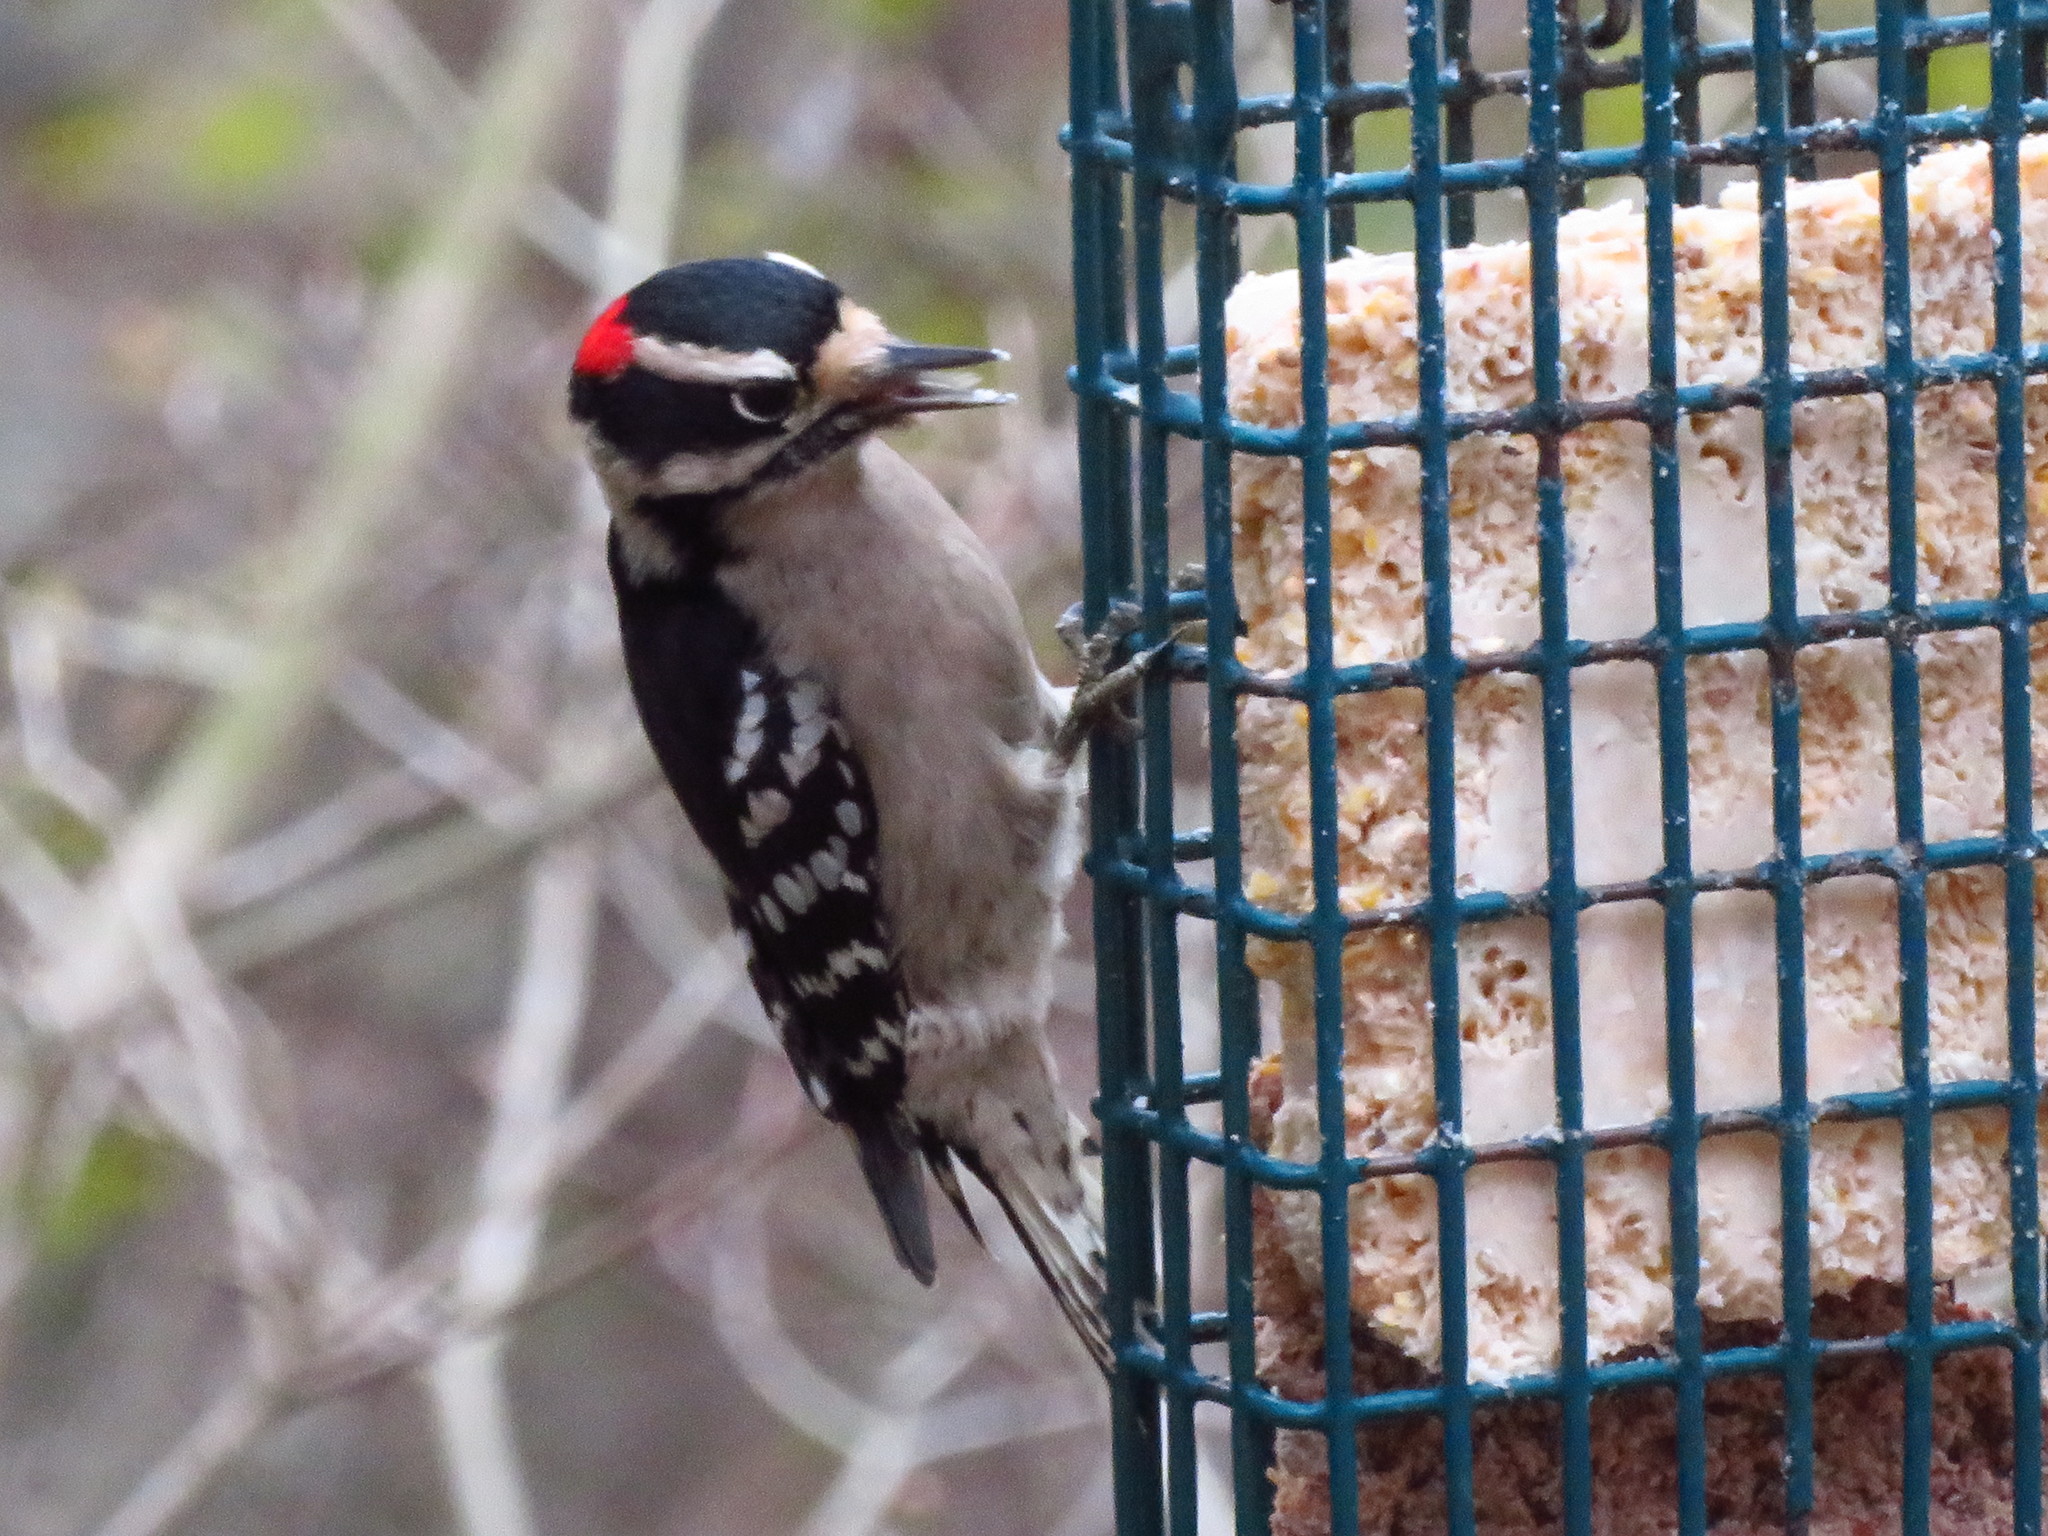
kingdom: Animalia
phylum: Chordata
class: Aves
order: Piciformes
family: Picidae
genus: Dryobates
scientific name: Dryobates pubescens
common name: Downy woodpecker
